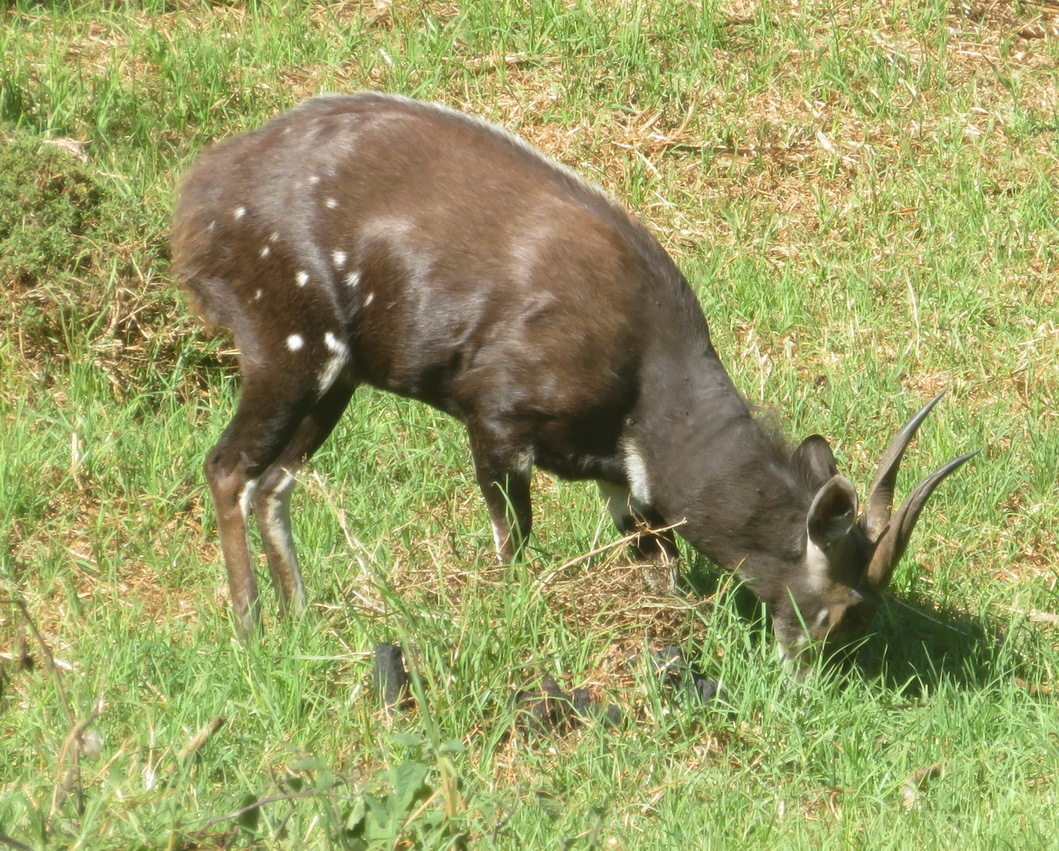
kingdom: Animalia
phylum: Chordata
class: Mammalia
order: Artiodactyla
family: Bovidae
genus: Tragelaphus
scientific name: Tragelaphus scriptus
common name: Bushbuck
